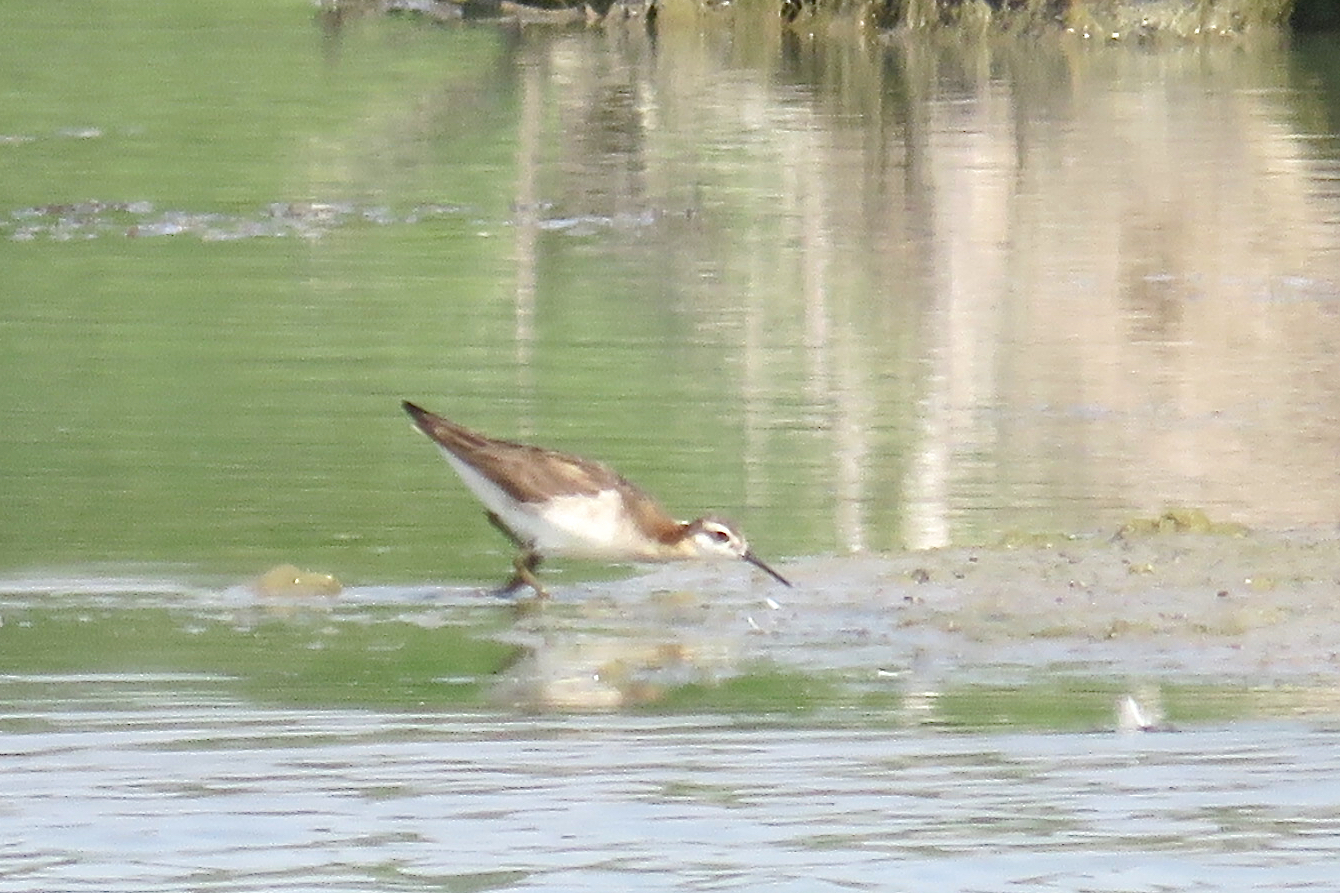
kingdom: Animalia
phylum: Chordata
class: Aves
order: Charadriiformes
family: Scolopacidae
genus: Phalaropus
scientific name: Phalaropus tricolor
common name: Wilson's phalarope
